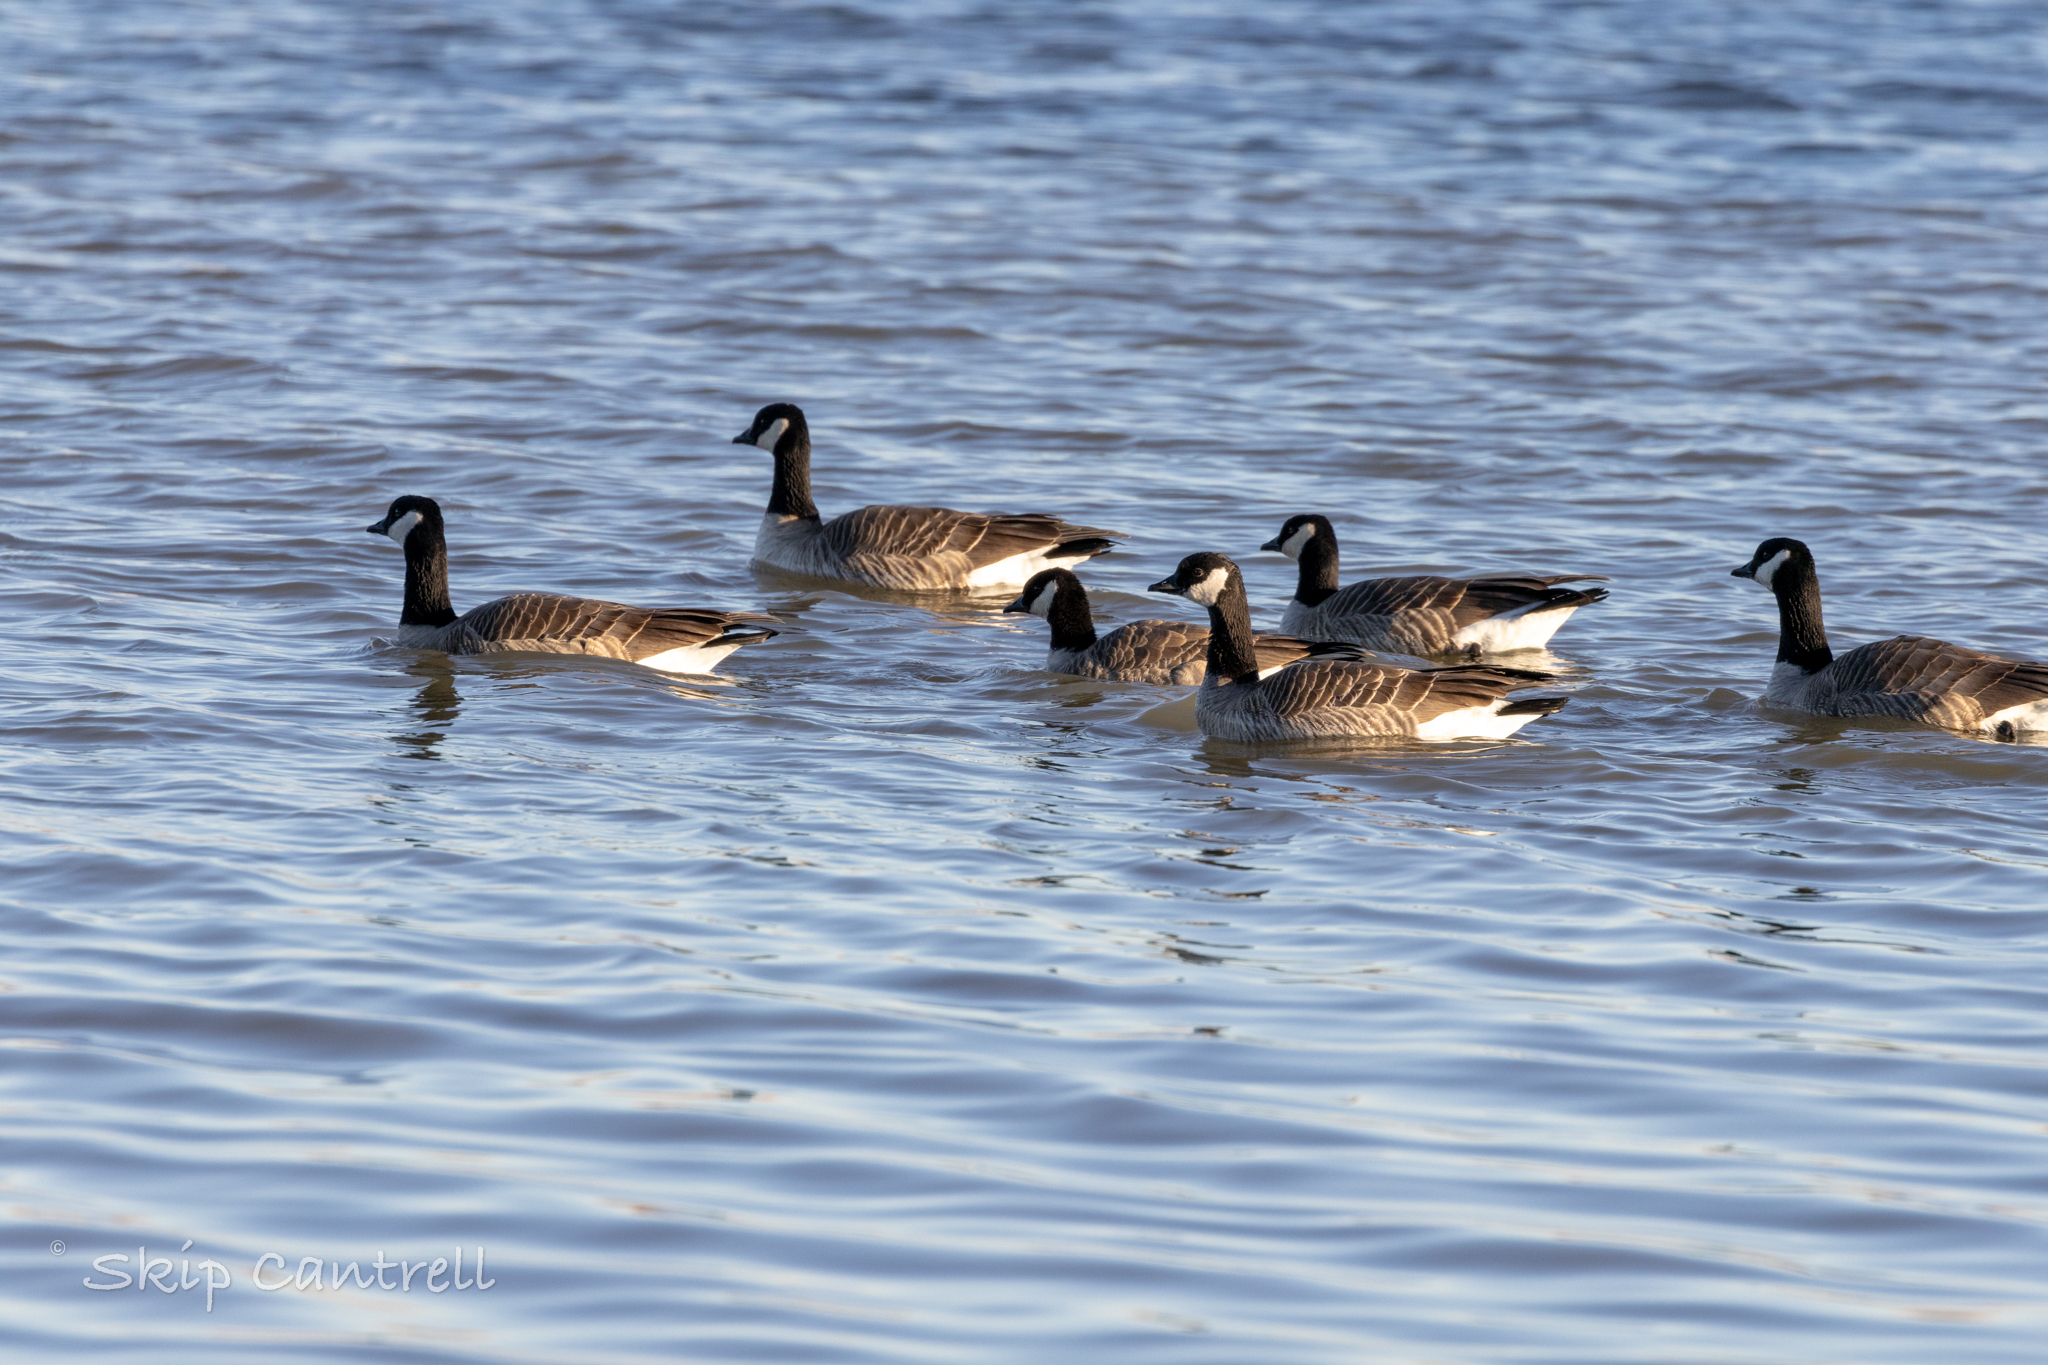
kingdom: Animalia
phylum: Chordata
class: Aves
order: Anseriformes
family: Anatidae
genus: Branta
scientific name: Branta hutchinsii
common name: Cackling goose
